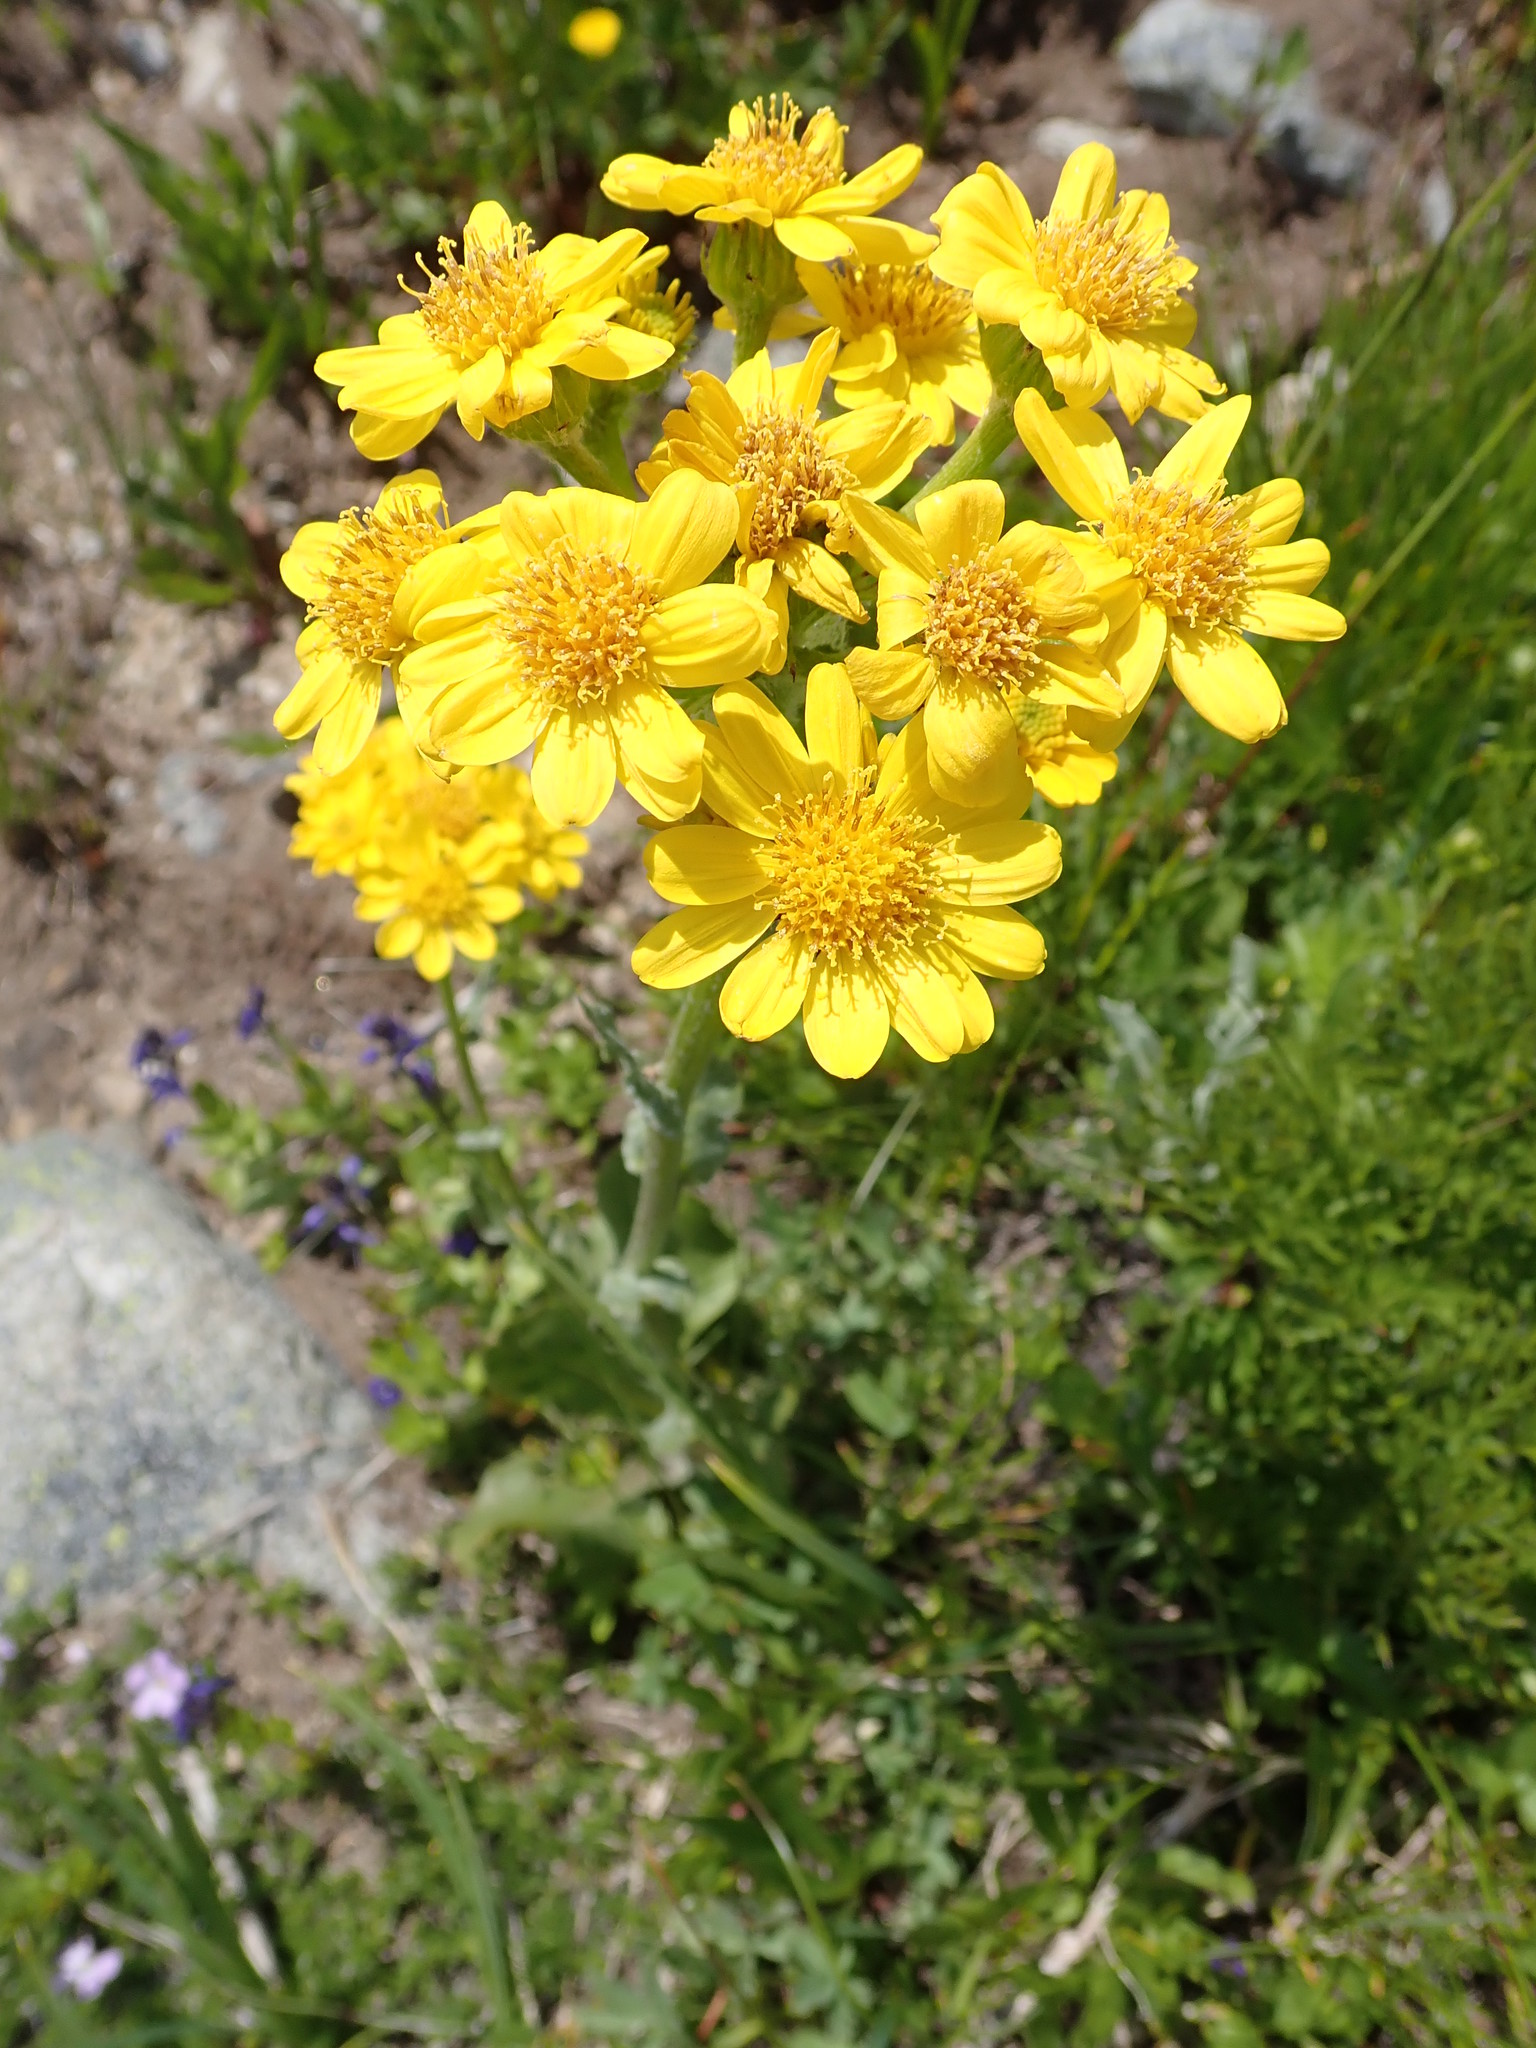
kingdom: Plantae
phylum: Tracheophyta
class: Magnoliopsida
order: Asterales
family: Asteraceae
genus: Senecio
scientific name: Senecio integerrimus
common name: Gaugeplant
